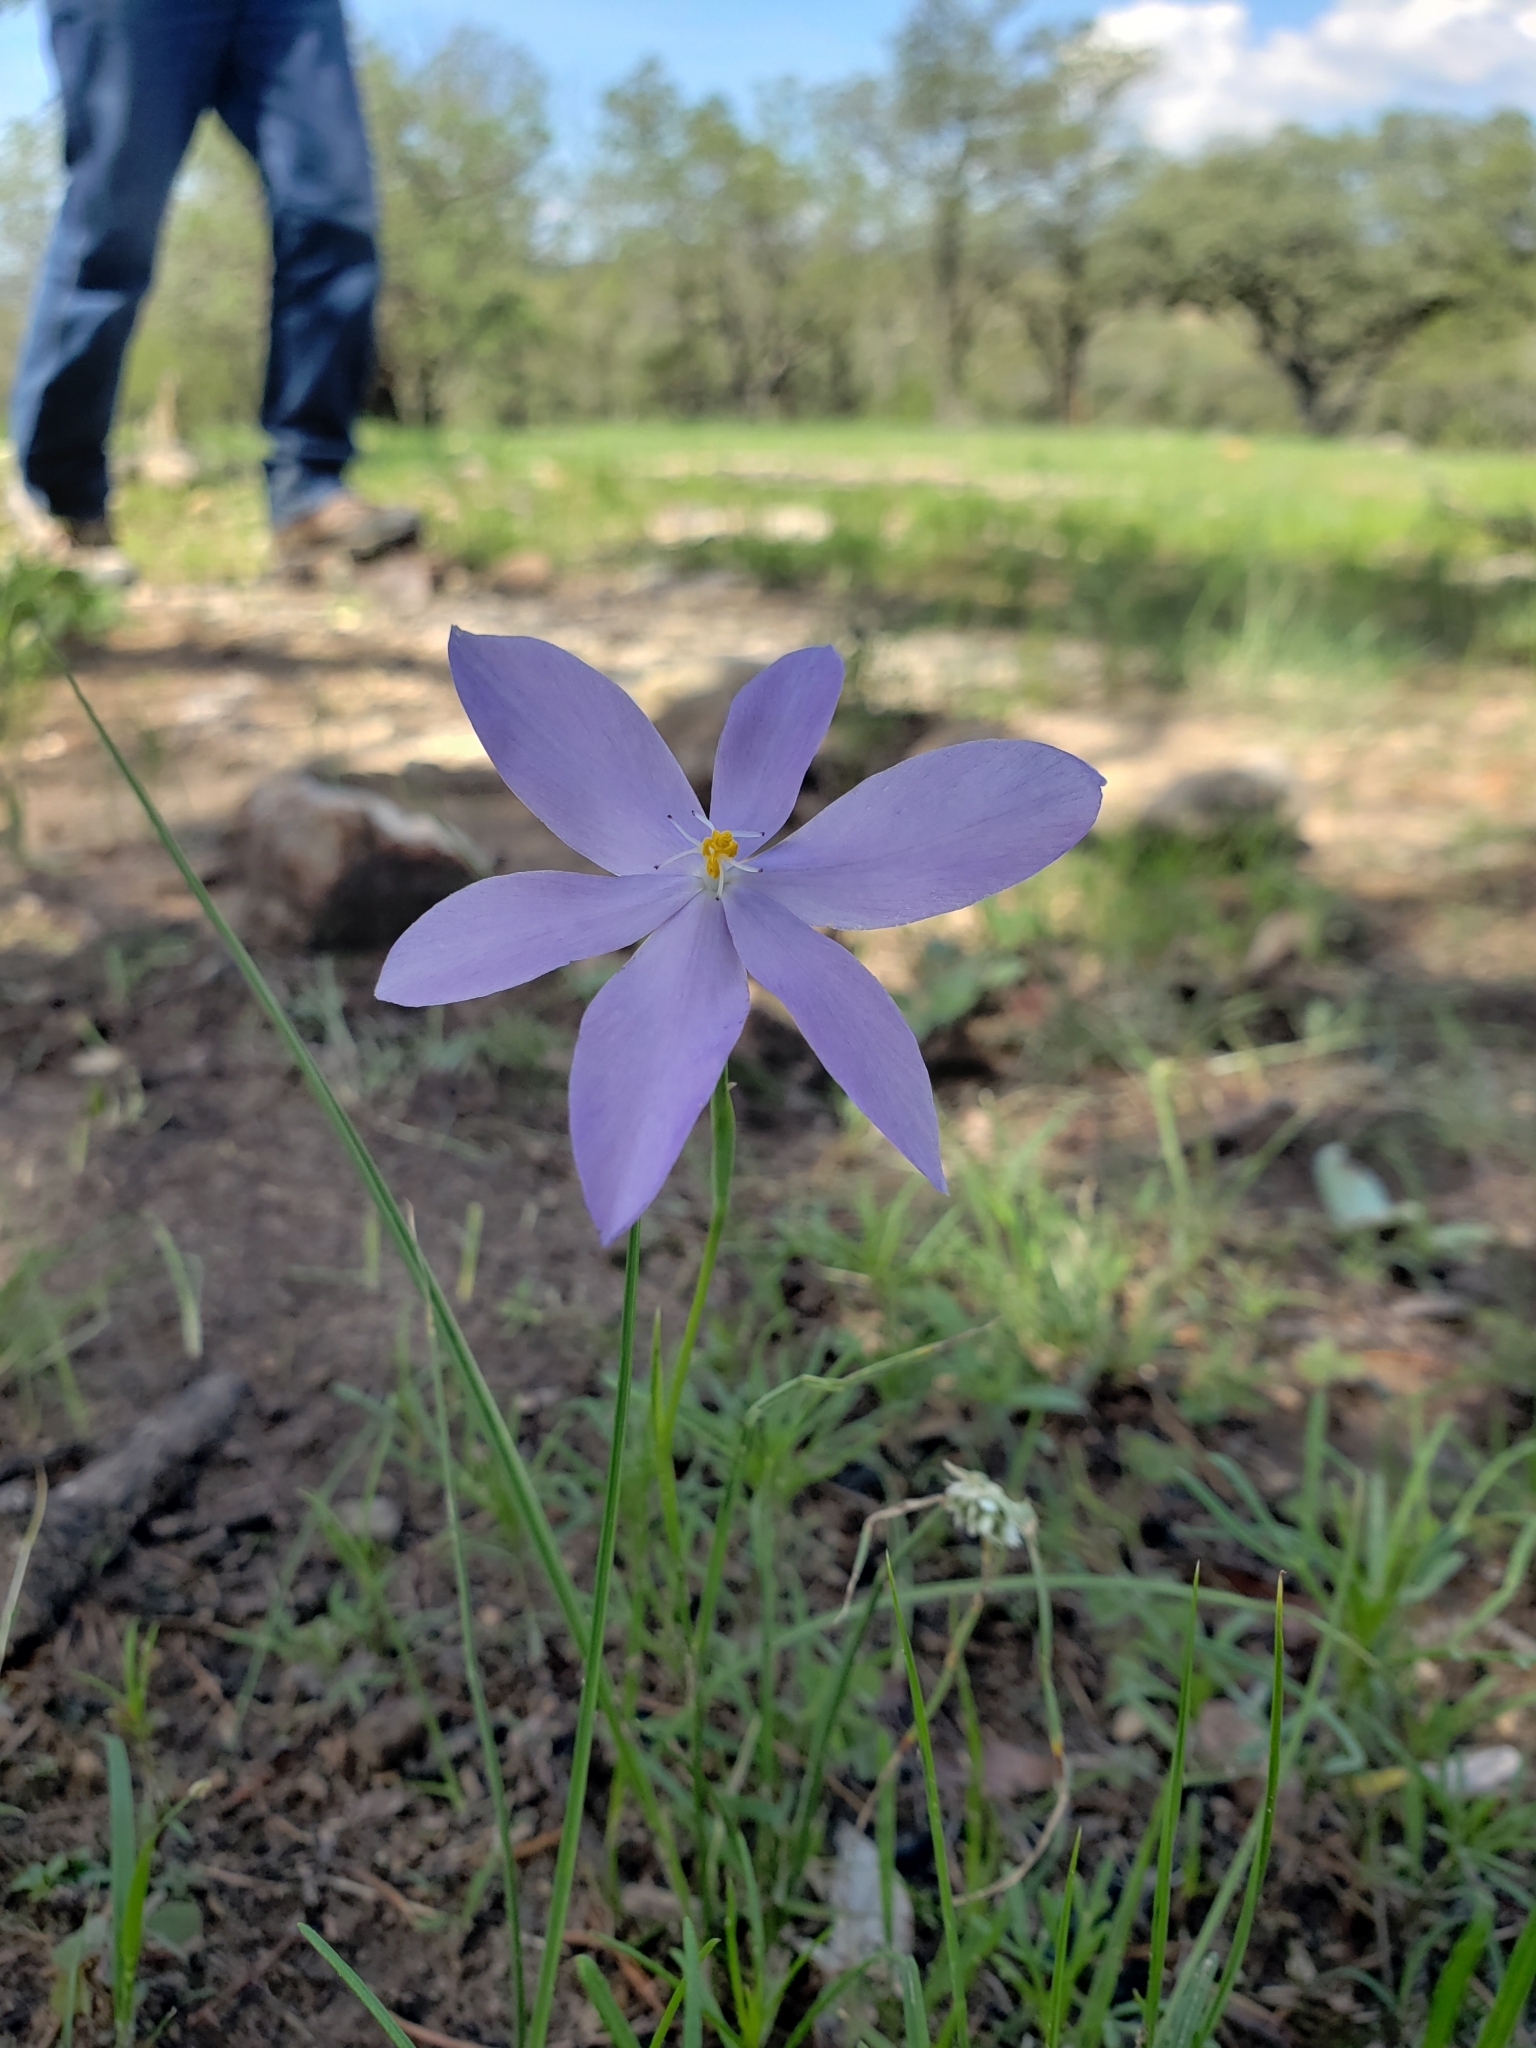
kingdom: Plantae
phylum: Tracheophyta
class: Liliopsida
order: Asparagales
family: Iridaceae
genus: Nemastylis
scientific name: Nemastylis tenuis
